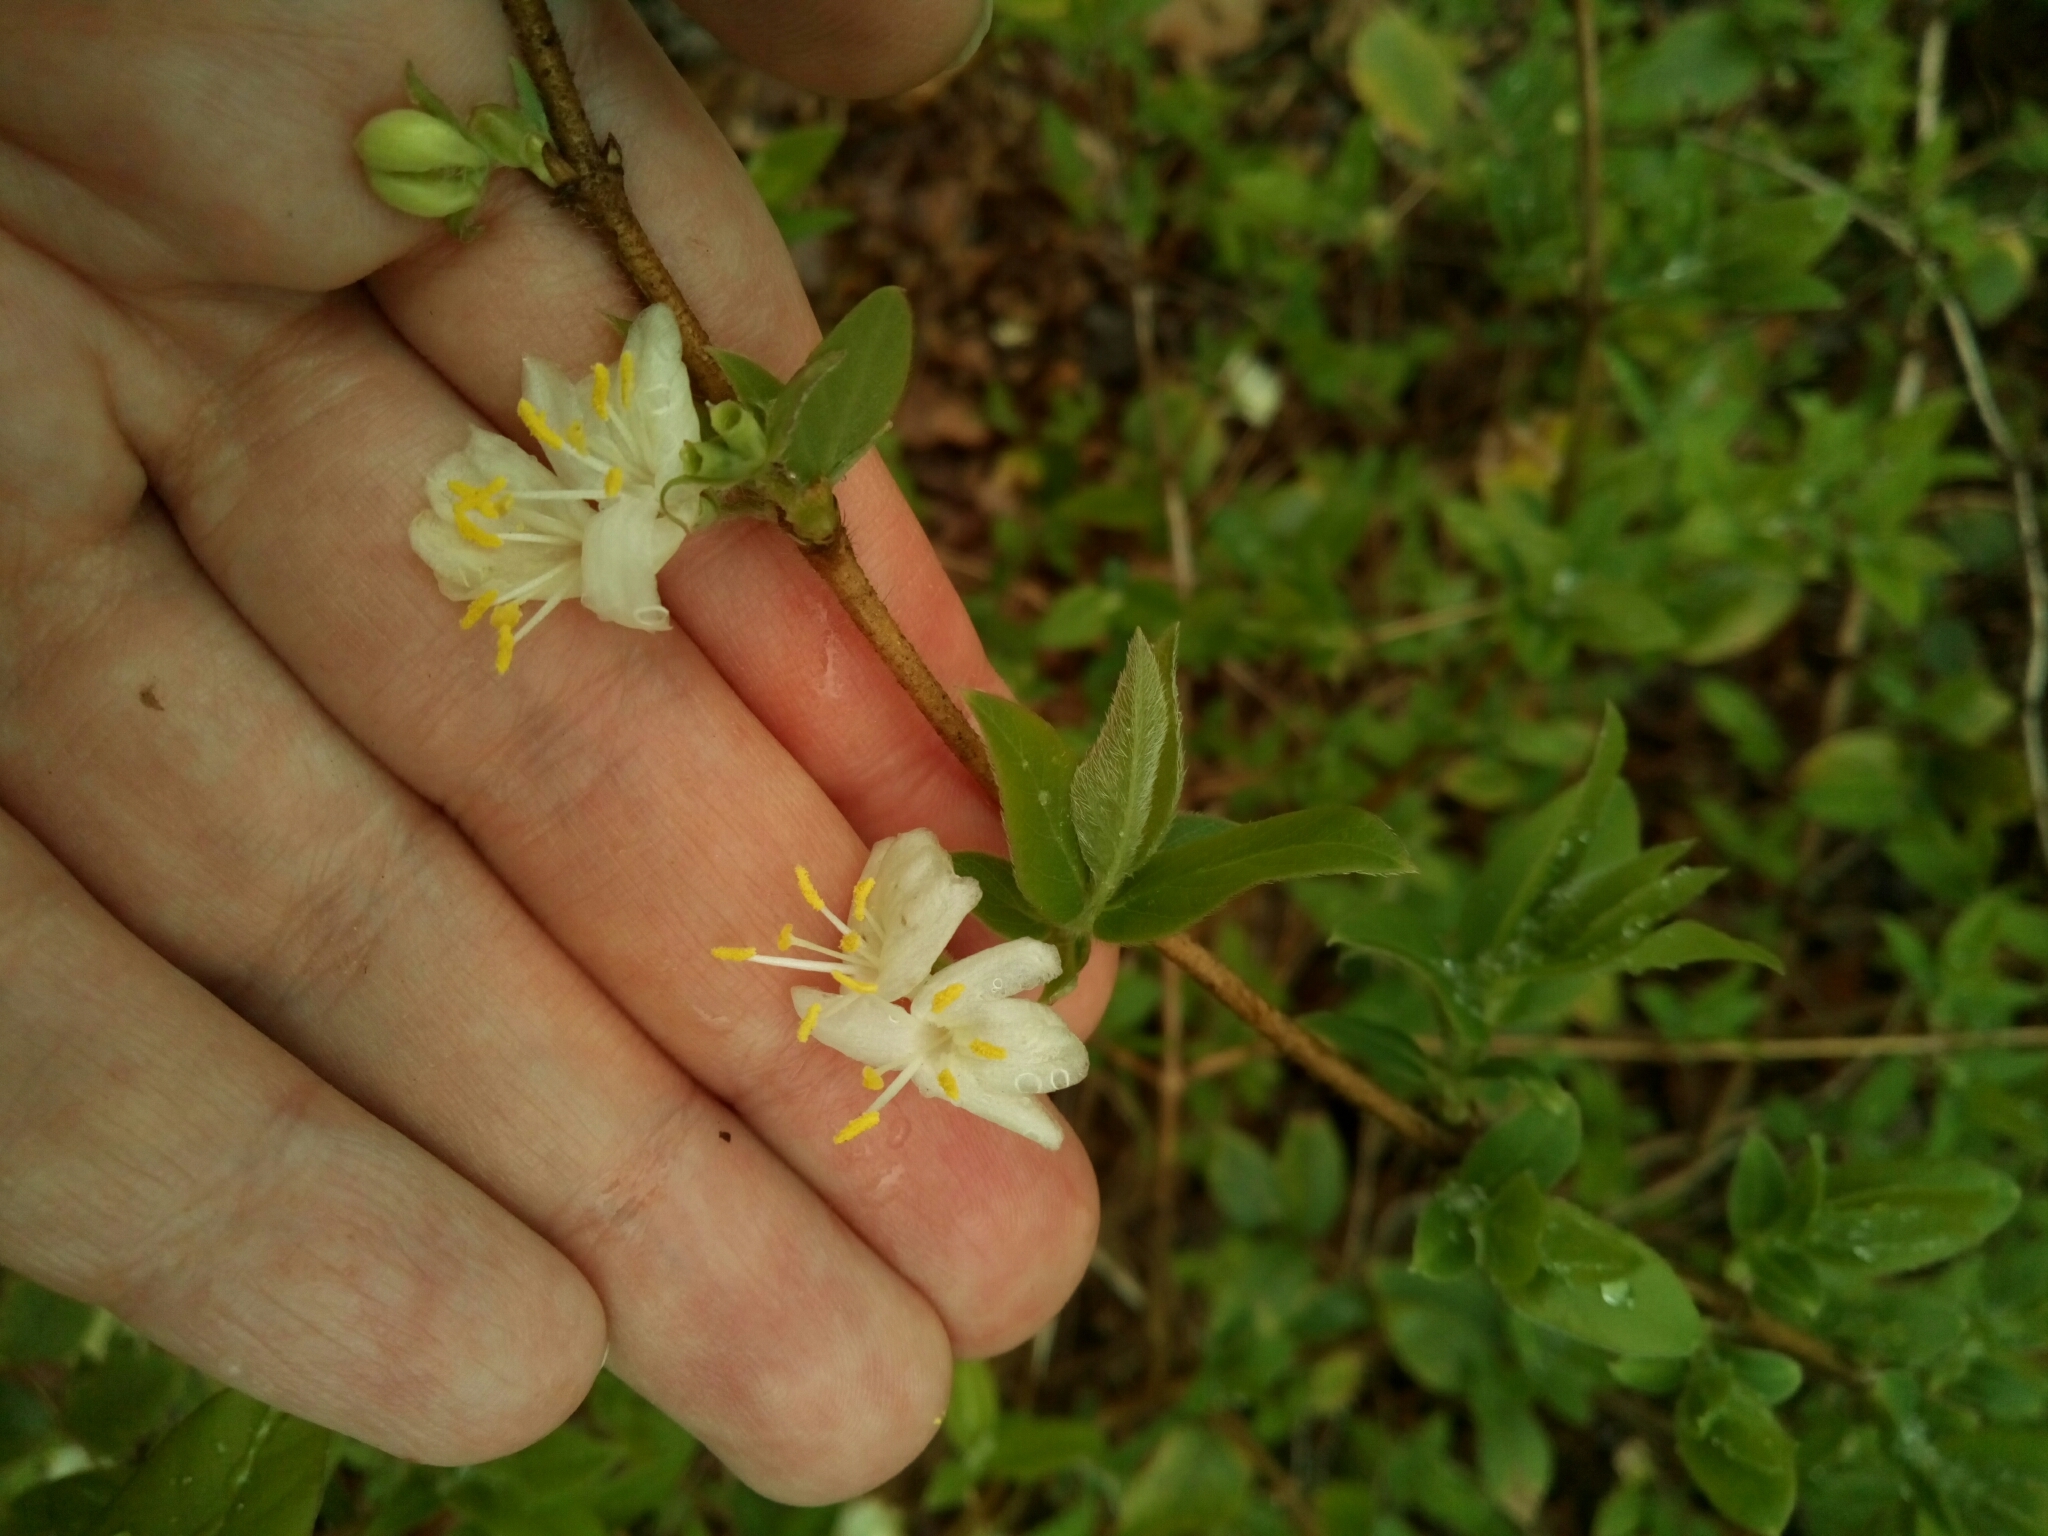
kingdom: Plantae
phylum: Tracheophyta
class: Magnoliopsida
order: Dipsacales
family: Caprifoliaceae
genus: Lonicera
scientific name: Lonicera fragrantissima
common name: Fragrant honeysuckle
